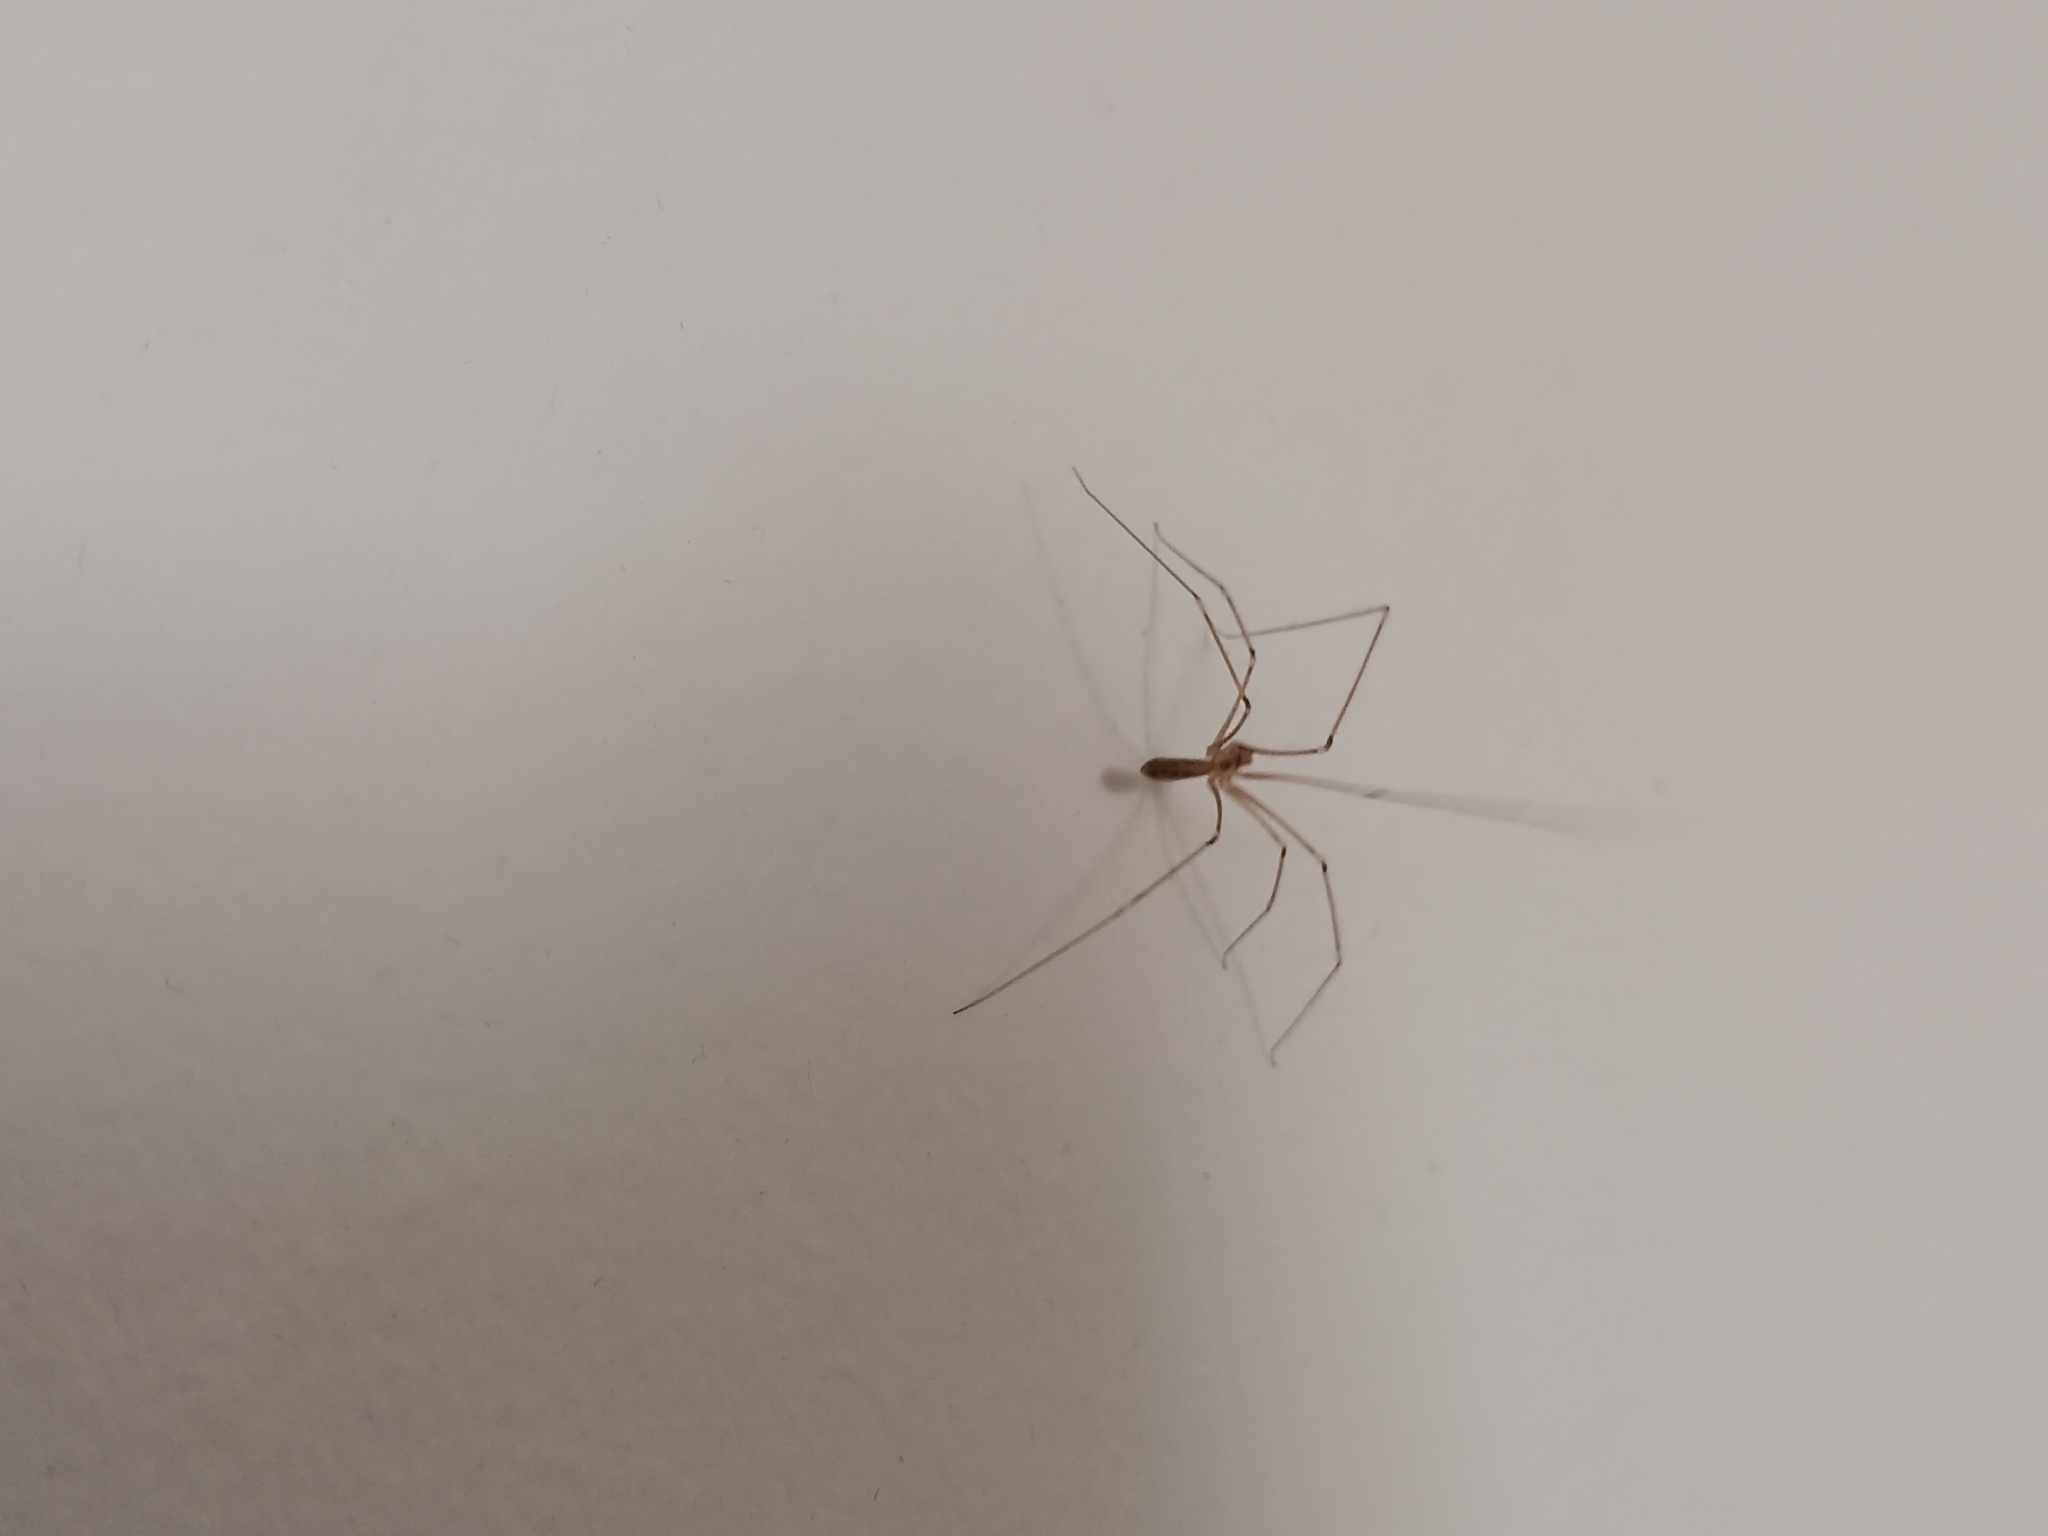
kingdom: Animalia
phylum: Arthropoda
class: Arachnida
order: Araneae
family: Pholcidae
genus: Pholcus
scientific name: Pholcus phalangioides
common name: Longbodied cellar spider
